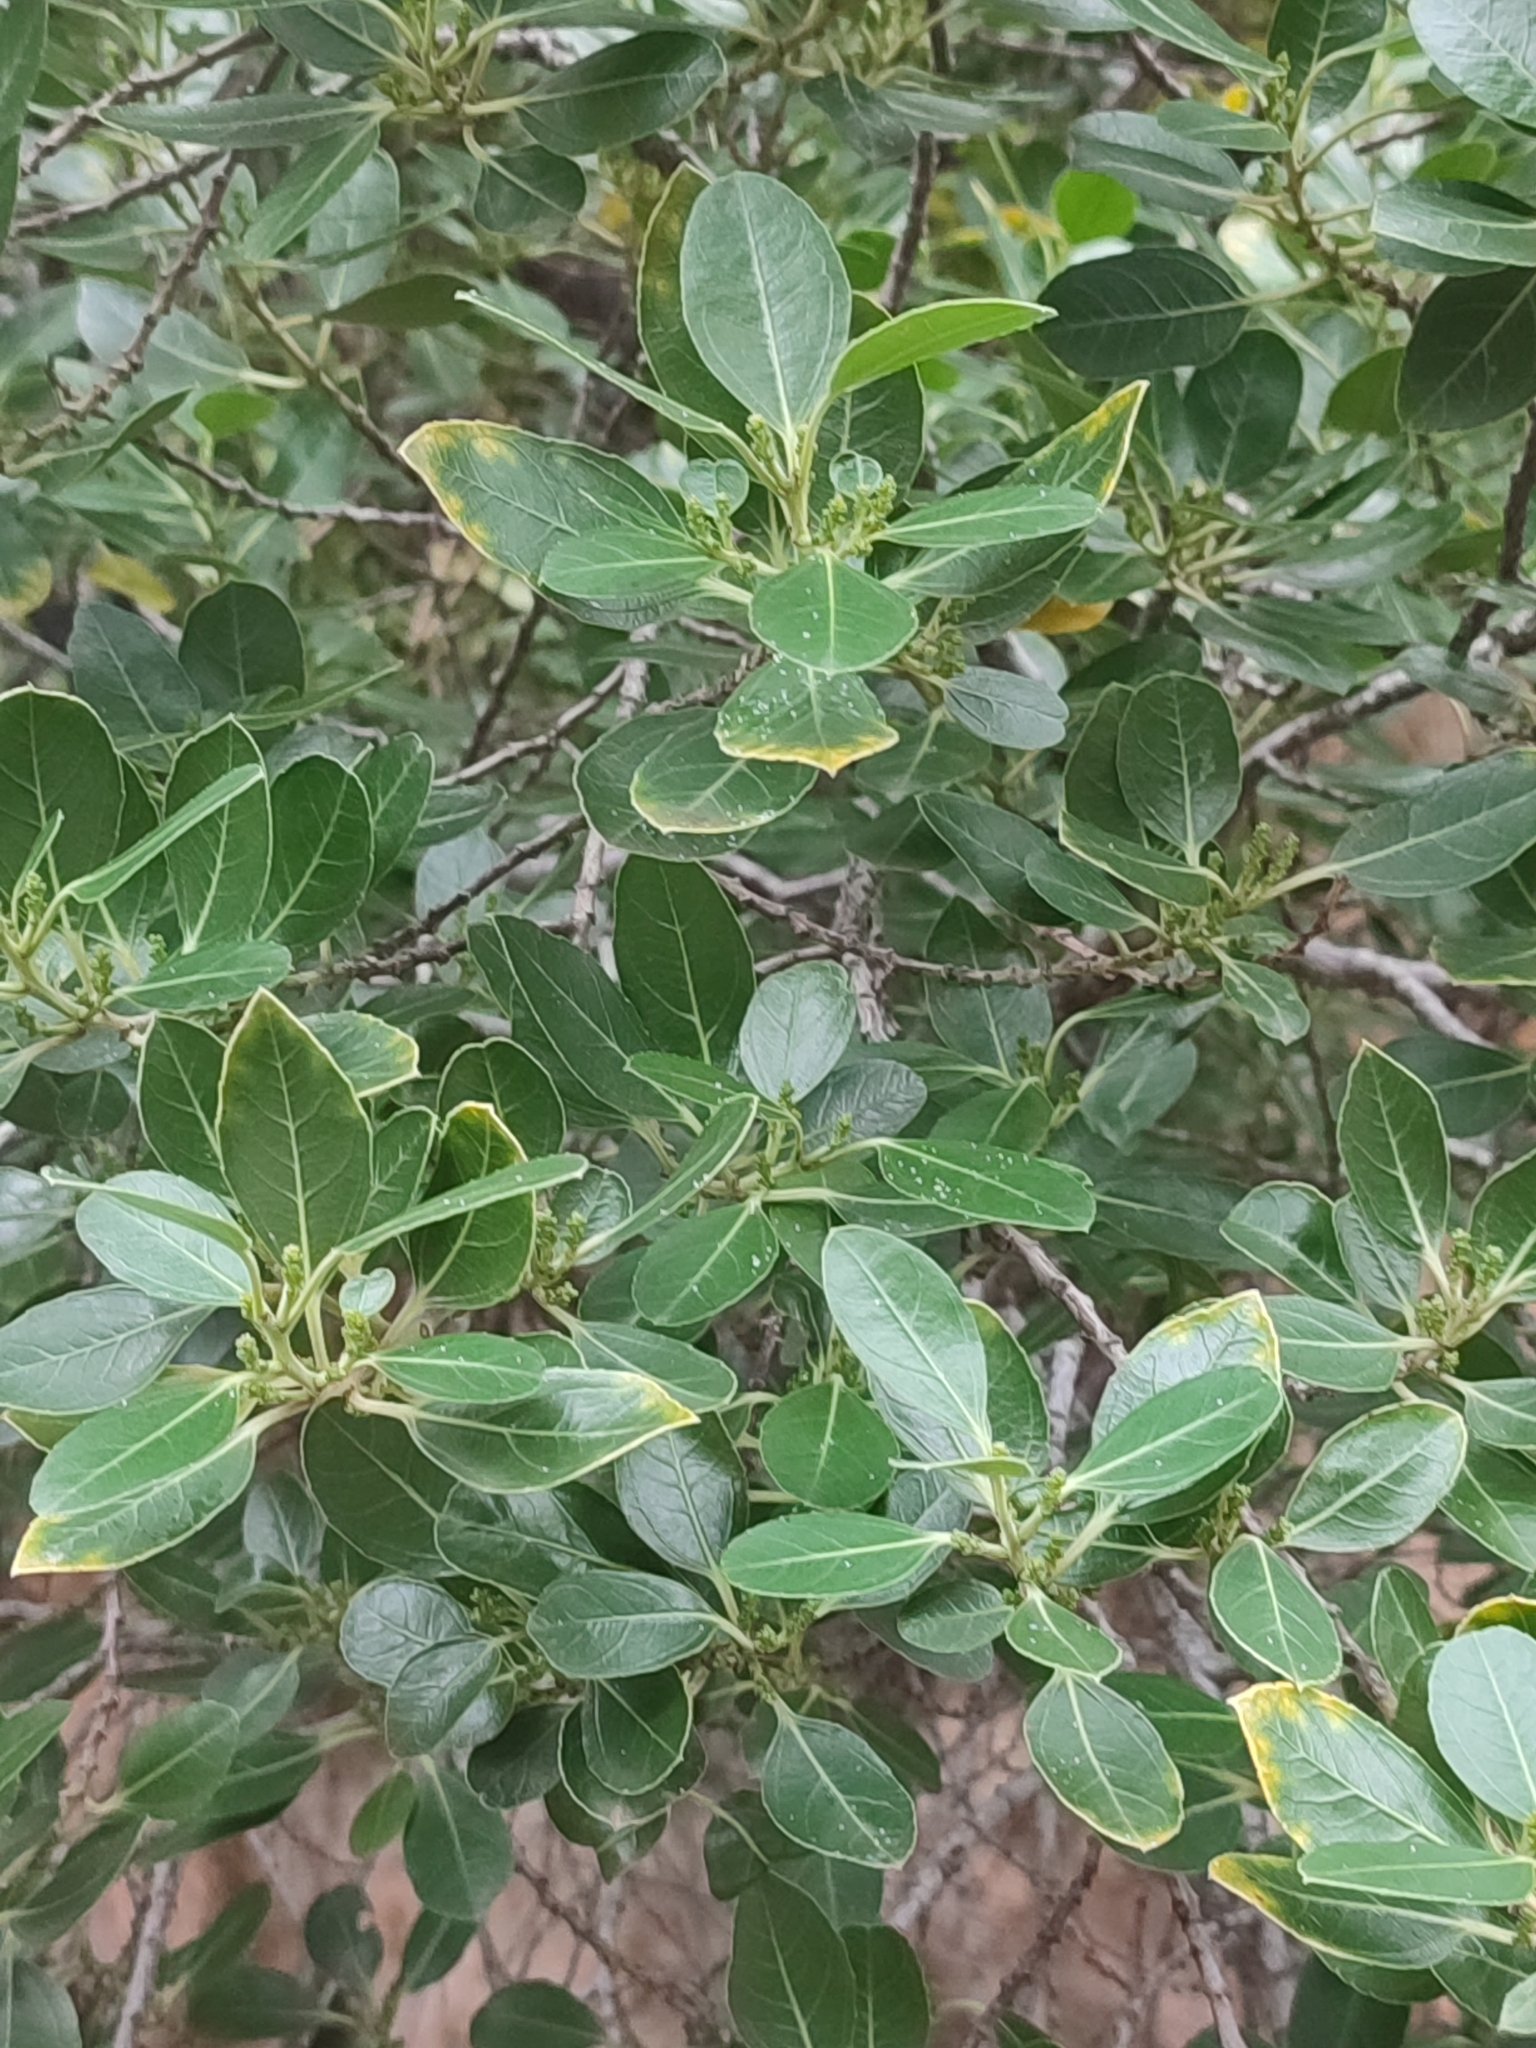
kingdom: Plantae
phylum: Tracheophyta
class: Magnoliopsida
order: Lamiales
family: Oleaceae
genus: Phillyrea
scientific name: Phillyrea latifolia
